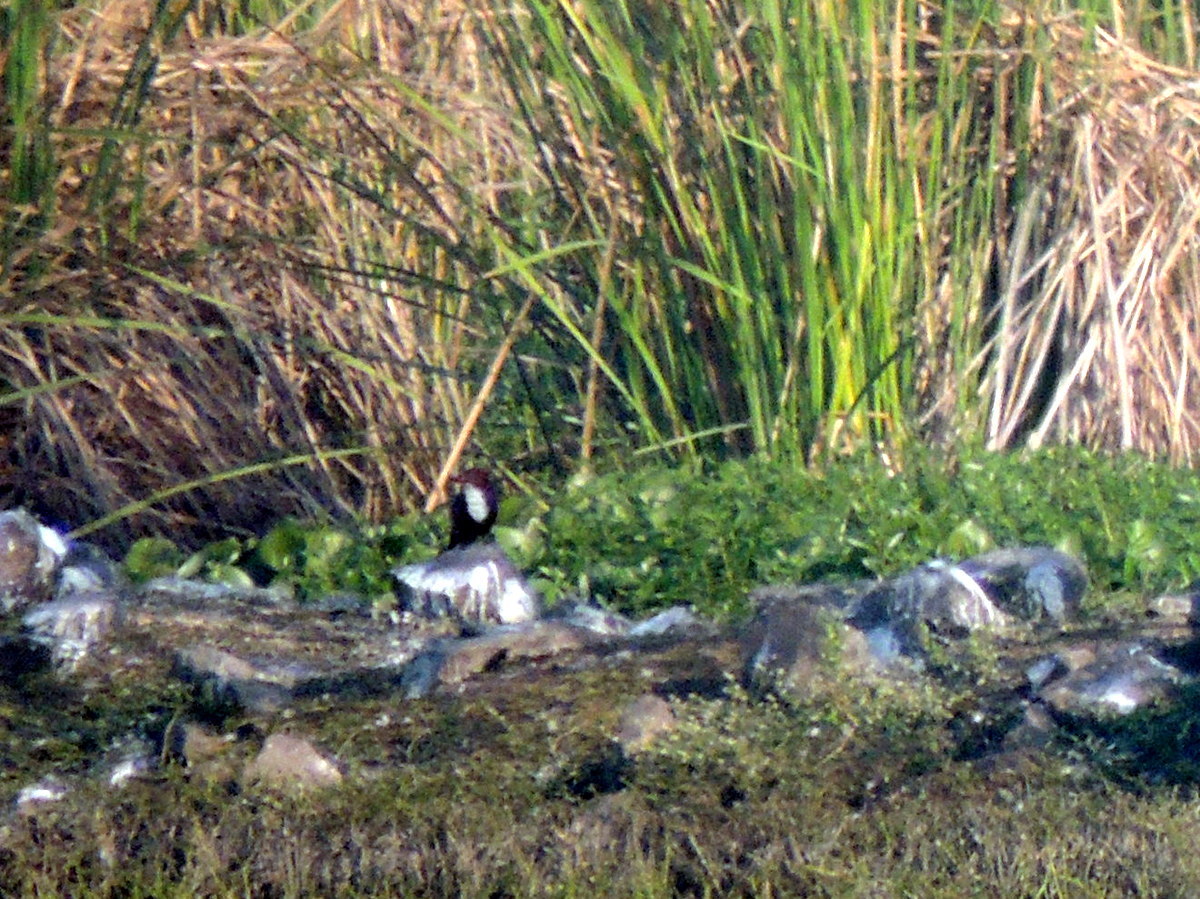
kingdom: Animalia
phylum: Chordata
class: Aves
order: Coraciiformes
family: Alcedinidae
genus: Halcyon
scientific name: Halcyon smyrnensis
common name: White-throated kingfisher
